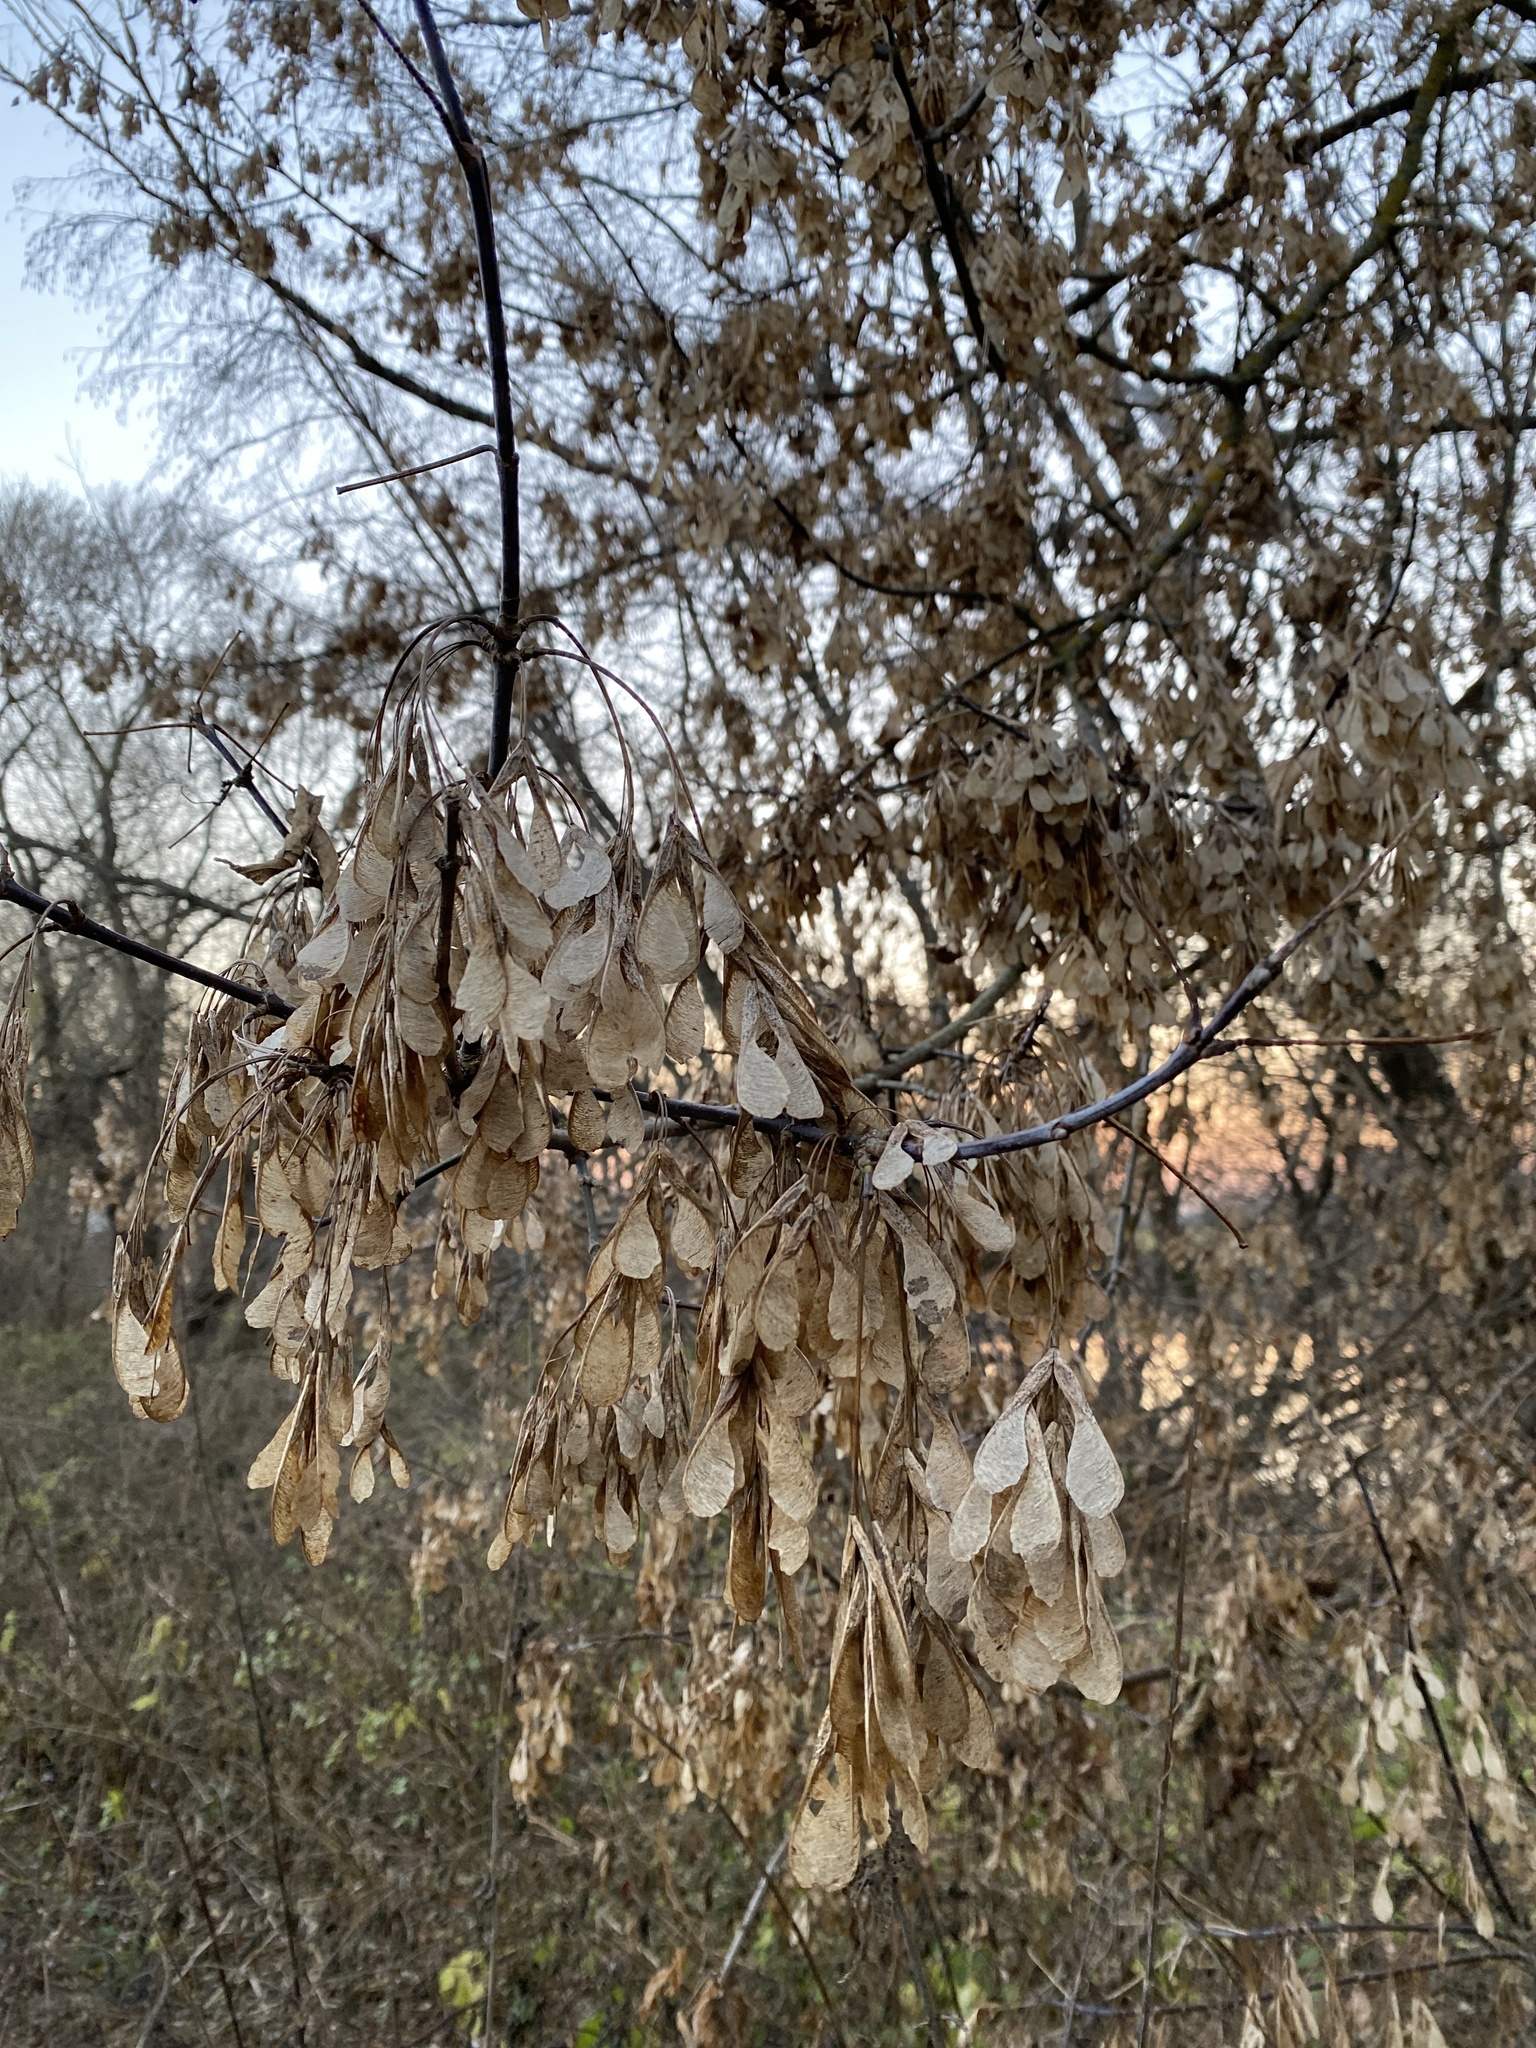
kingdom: Plantae
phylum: Tracheophyta
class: Magnoliopsida
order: Sapindales
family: Sapindaceae
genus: Acer
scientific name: Acer negundo
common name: Ashleaf maple
